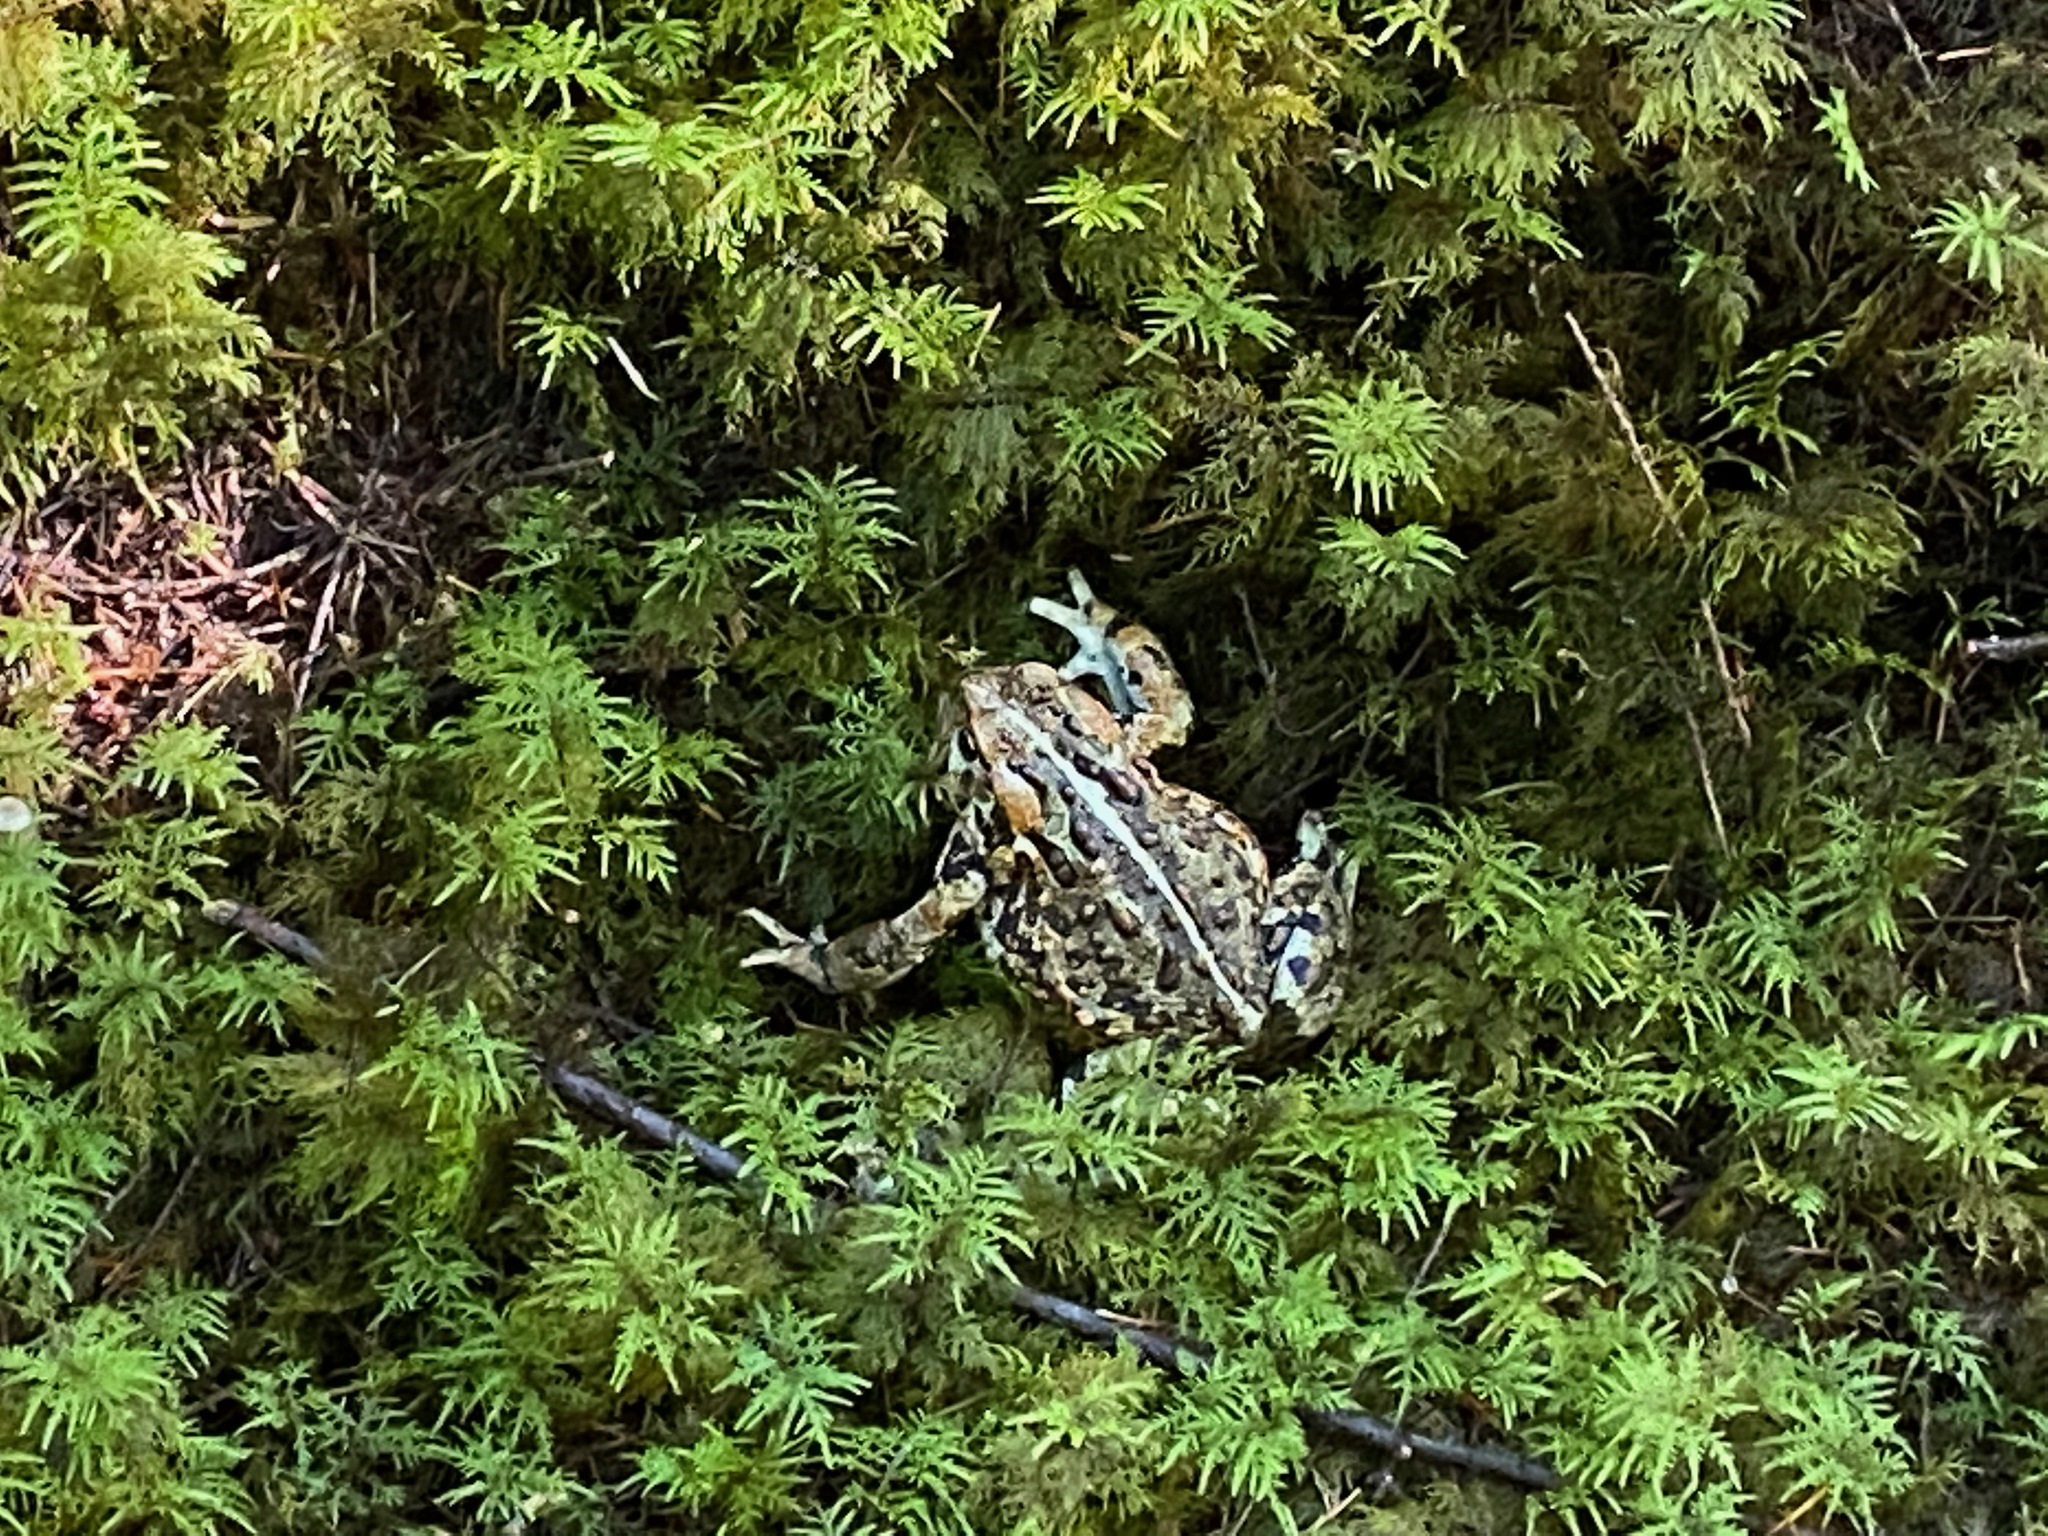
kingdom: Animalia
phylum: Chordata
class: Amphibia
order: Anura
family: Bufonidae
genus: Anaxyrus
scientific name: Anaxyrus boreas
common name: Western toad
